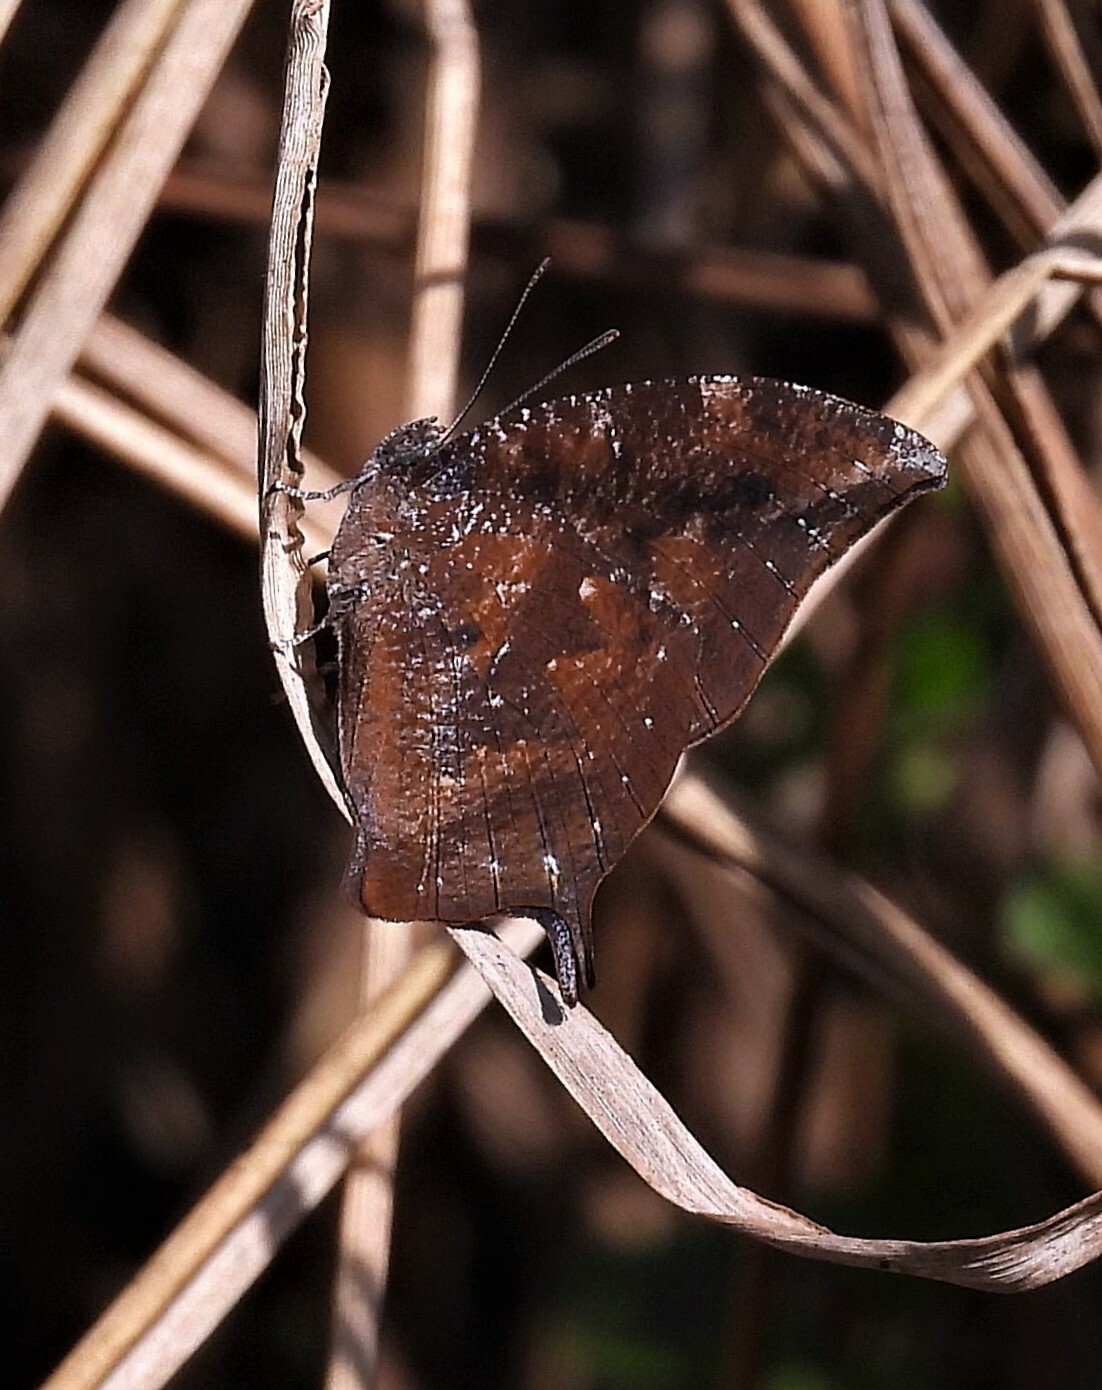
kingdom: Animalia
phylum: Arthropoda
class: Insecta
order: Lepidoptera
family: Nymphalidae
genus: Memphis
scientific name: Memphis moruus
